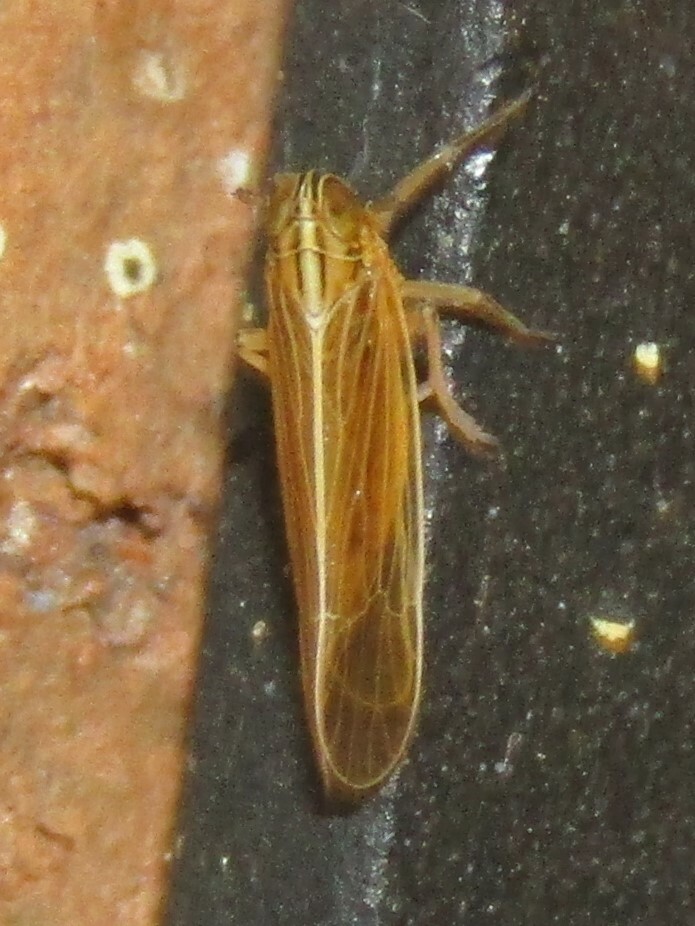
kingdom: Animalia
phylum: Arthropoda
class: Insecta
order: Hemiptera
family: Delphacidae
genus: Nothodelphax
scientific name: Nothodelphax slossonae
